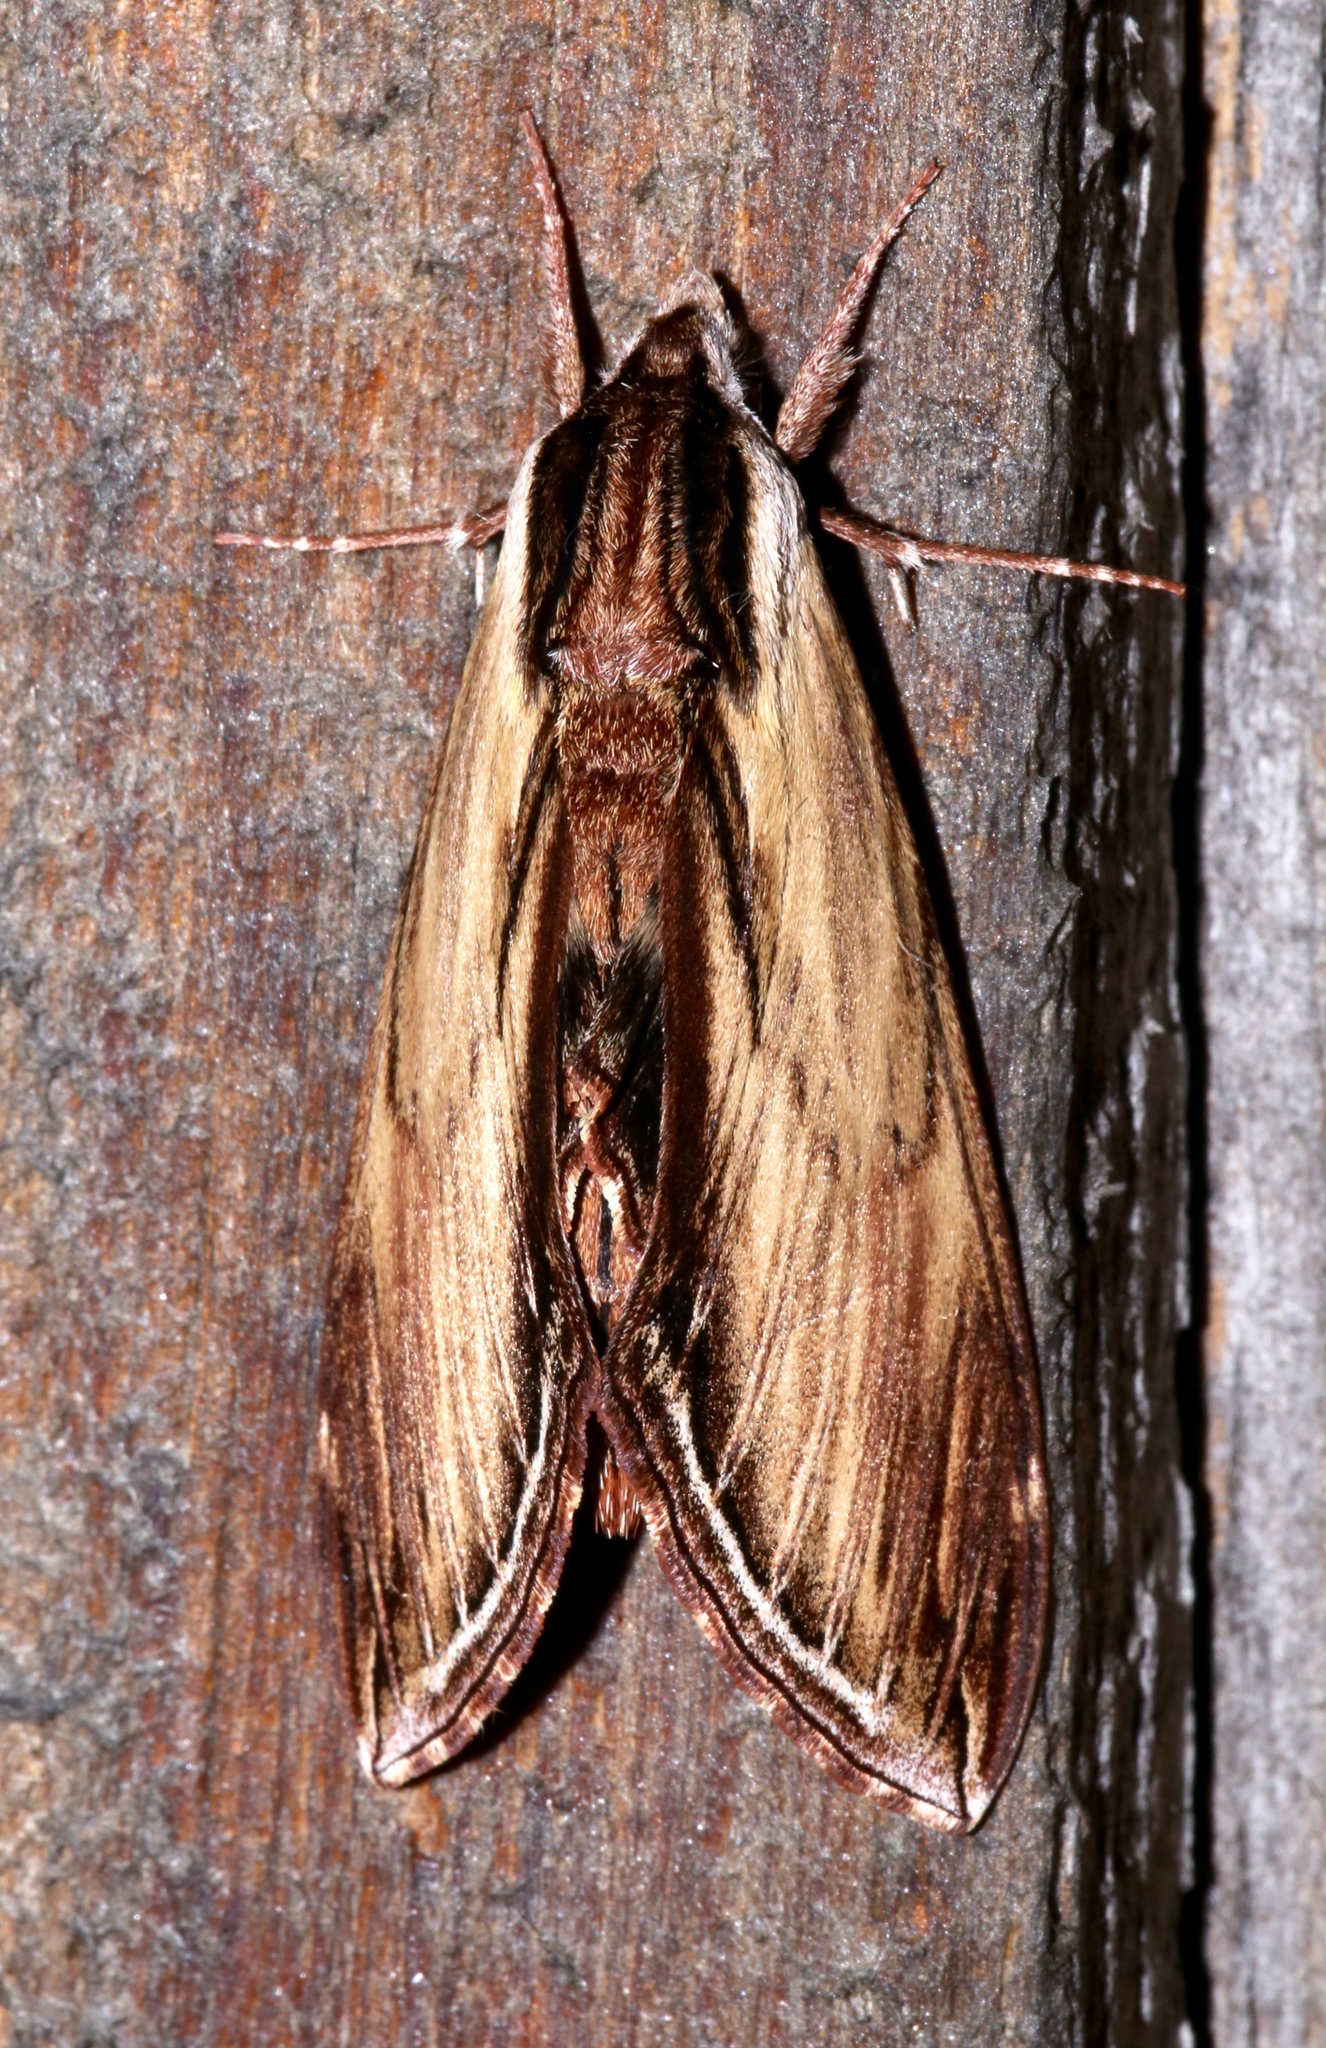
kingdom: Animalia
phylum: Arthropoda
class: Insecta
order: Lepidoptera
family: Sphingidae
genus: Sphinx
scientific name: Sphinx kalmiae
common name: Laurel sphinx
